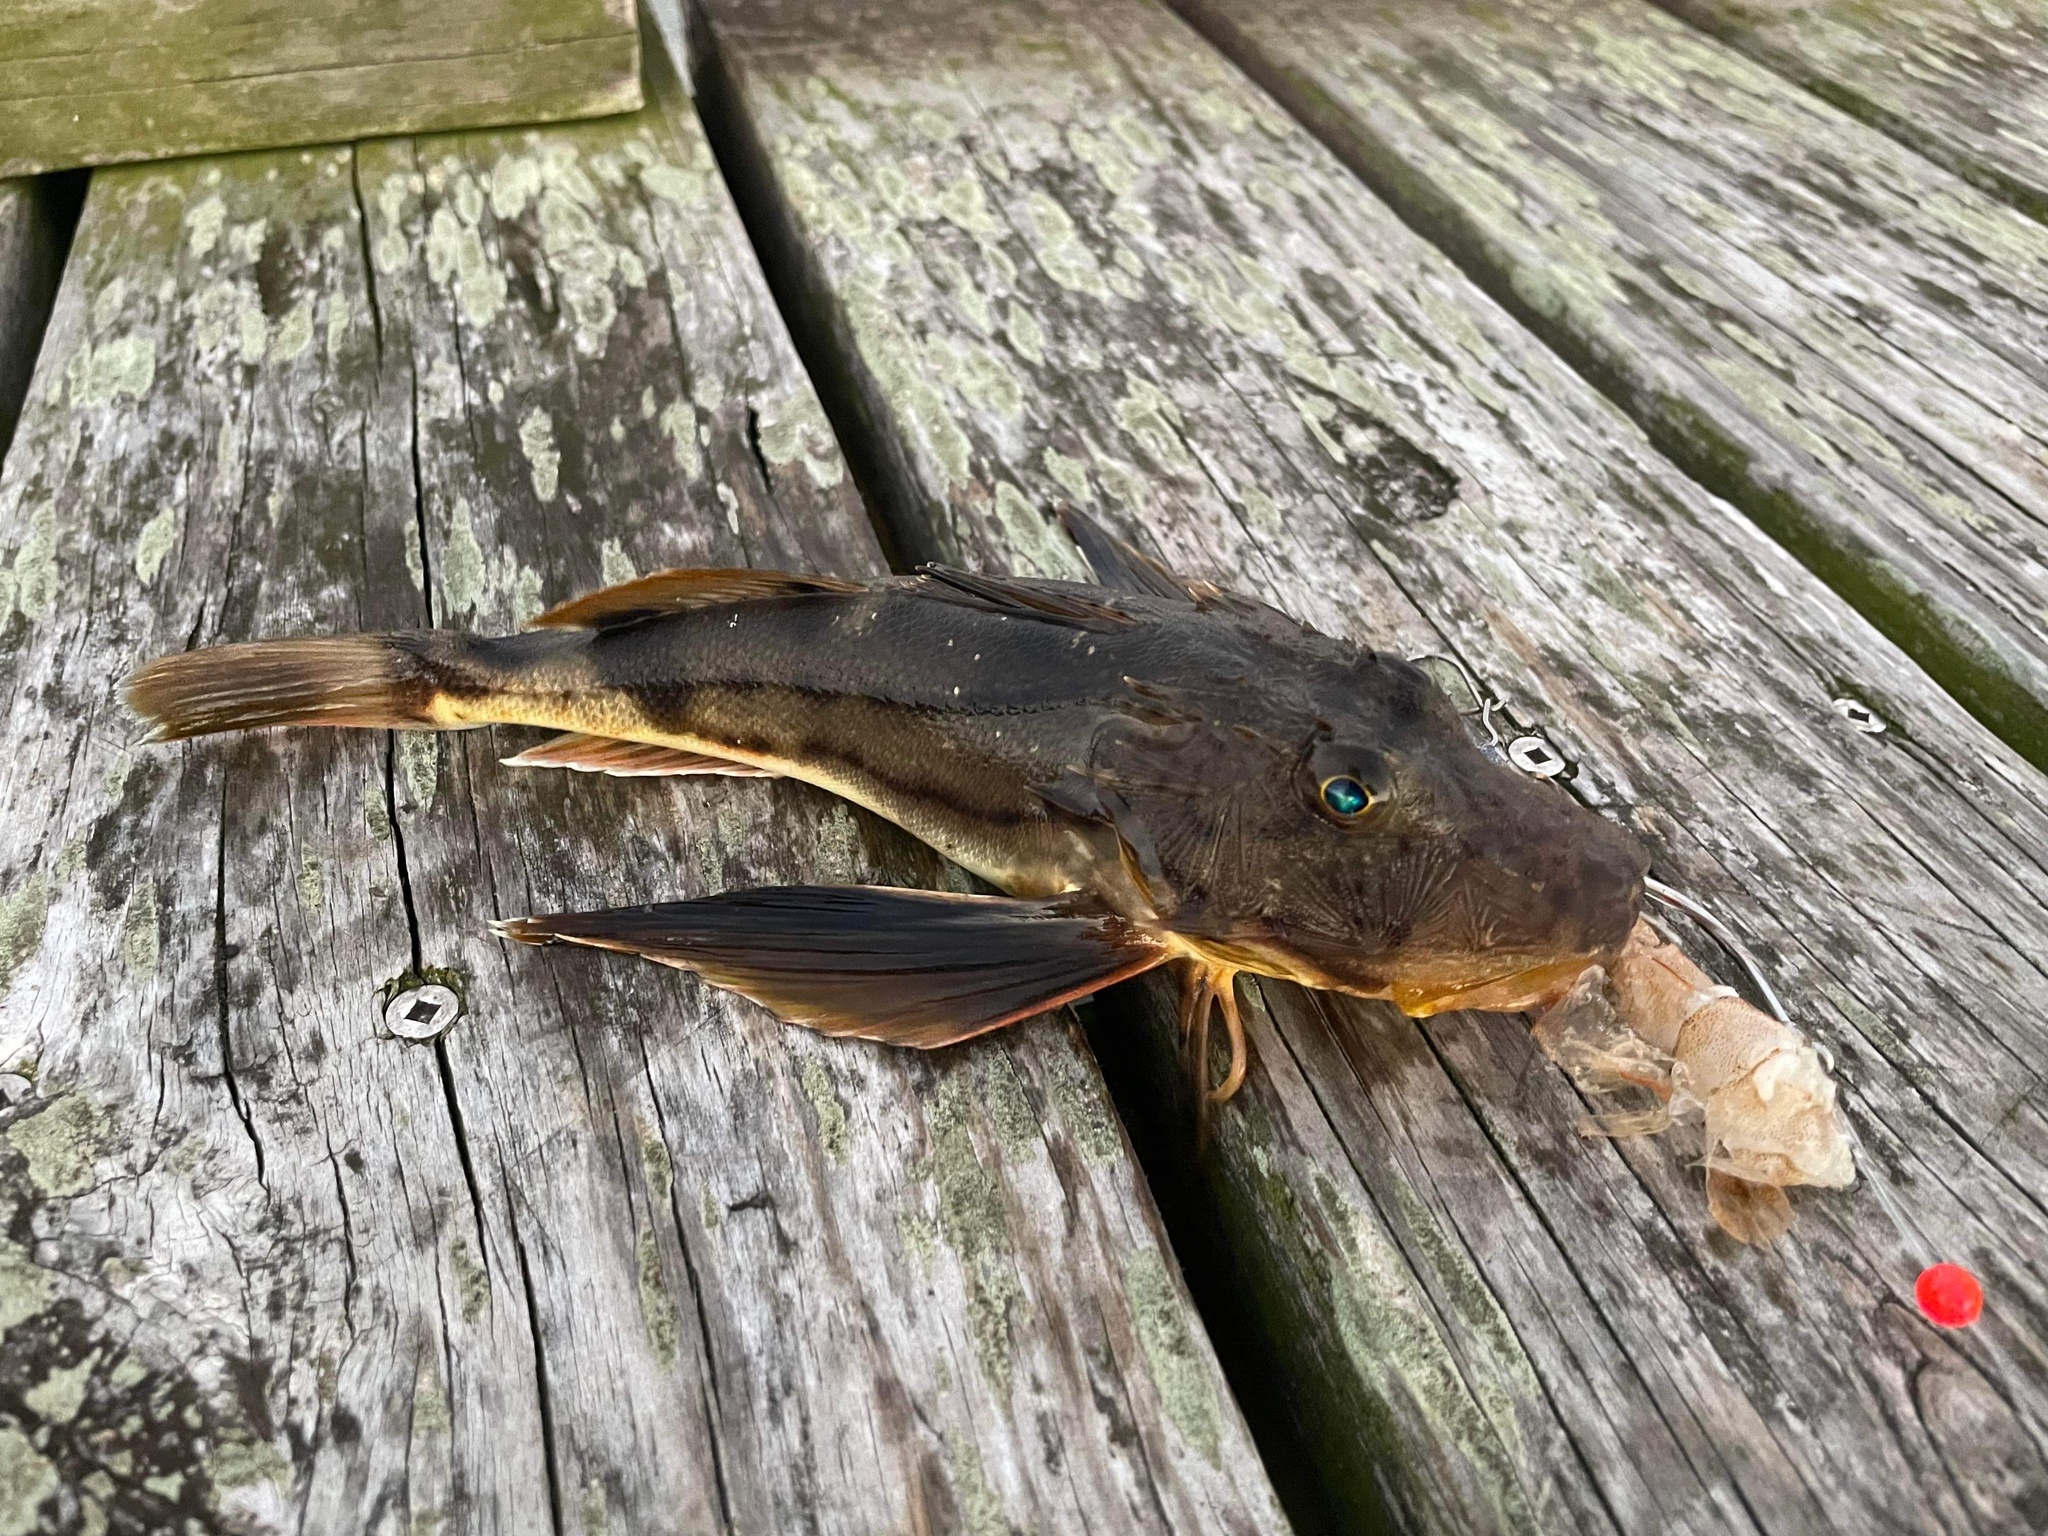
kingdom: Animalia
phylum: Chordata
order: Scorpaeniformes
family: Triglidae
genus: Prionotus
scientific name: Prionotus evolans
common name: Striped searobin
